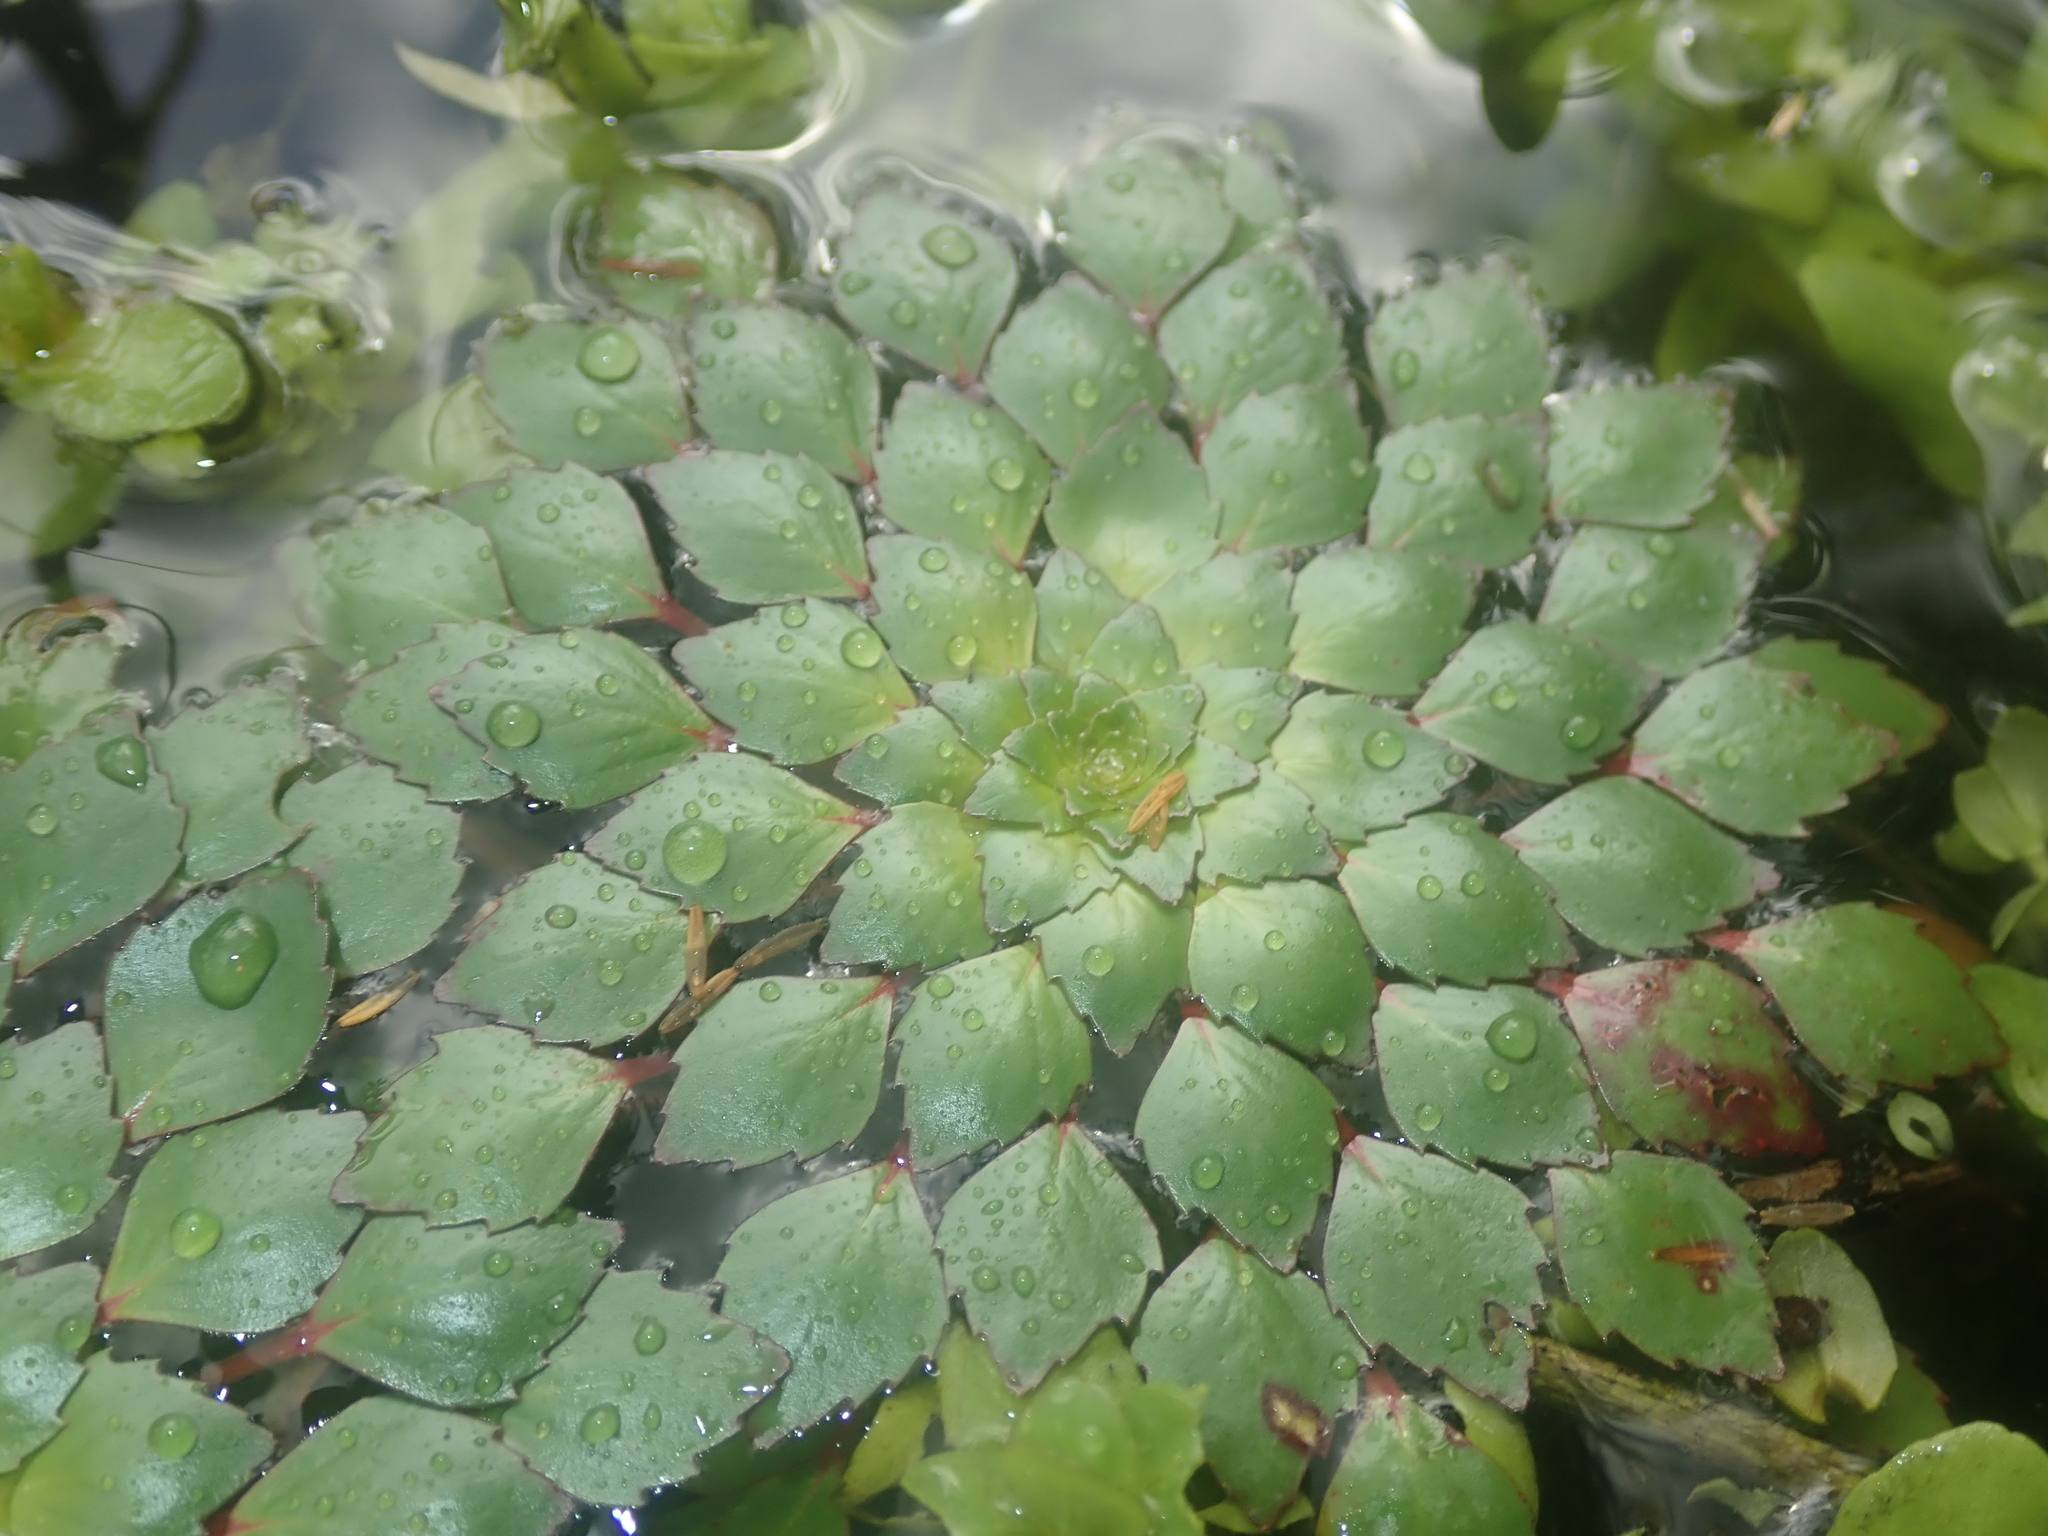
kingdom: Plantae
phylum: Tracheophyta
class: Magnoliopsida
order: Myrtales
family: Onagraceae
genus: Ludwigia
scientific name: Ludwigia sedioides
